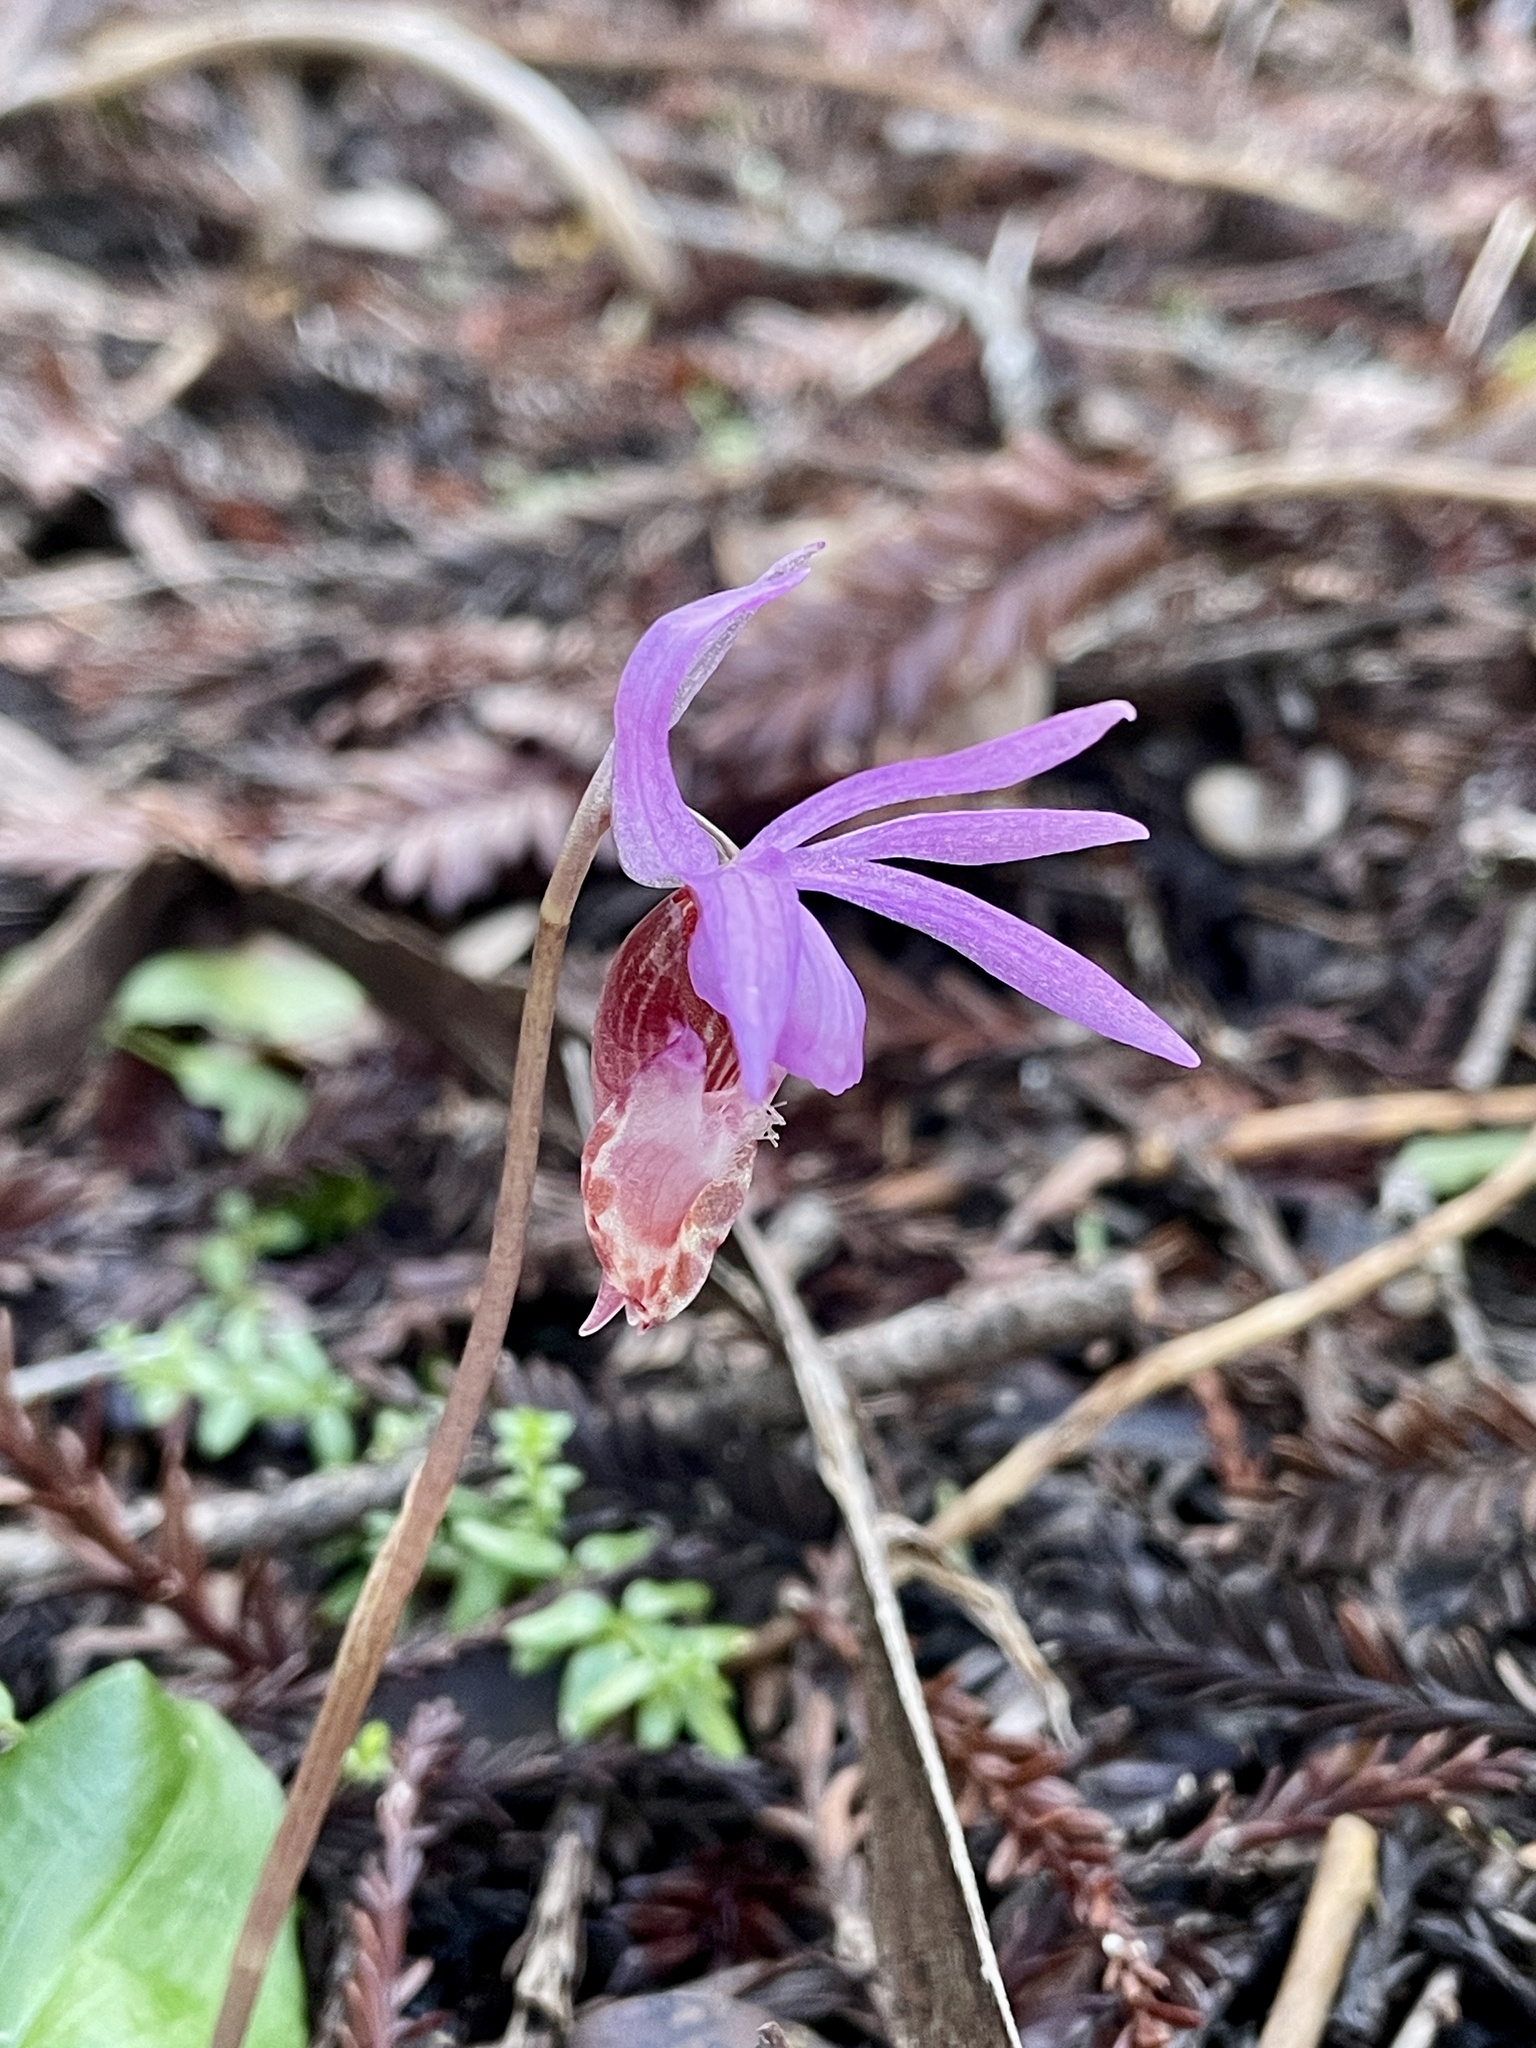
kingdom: Plantae
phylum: Tracheophyta
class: Liliopsida
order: Asparagales
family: Orchidaceae
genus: Calypso
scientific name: Calypso bulbosa
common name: Calypso
